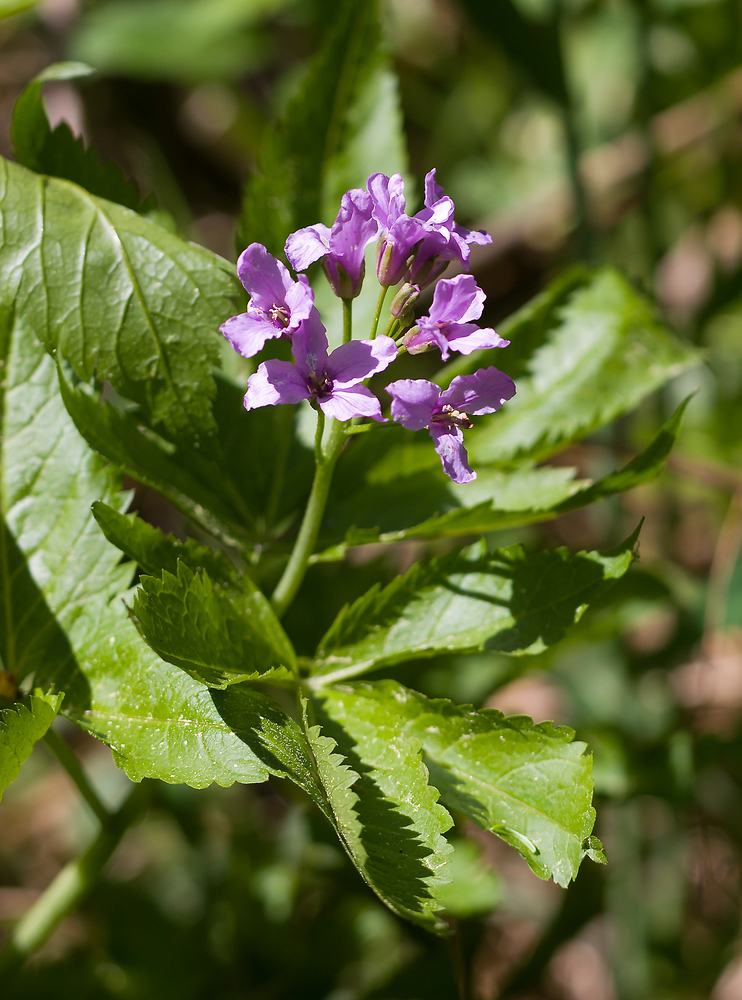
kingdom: Plantae
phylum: Tracheophyta
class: Magnoliopsida
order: Brassicales
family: Brassicaceae
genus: Cardamine
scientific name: Cardamine pentaphyllos
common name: Five-leaflet bitter-cress
